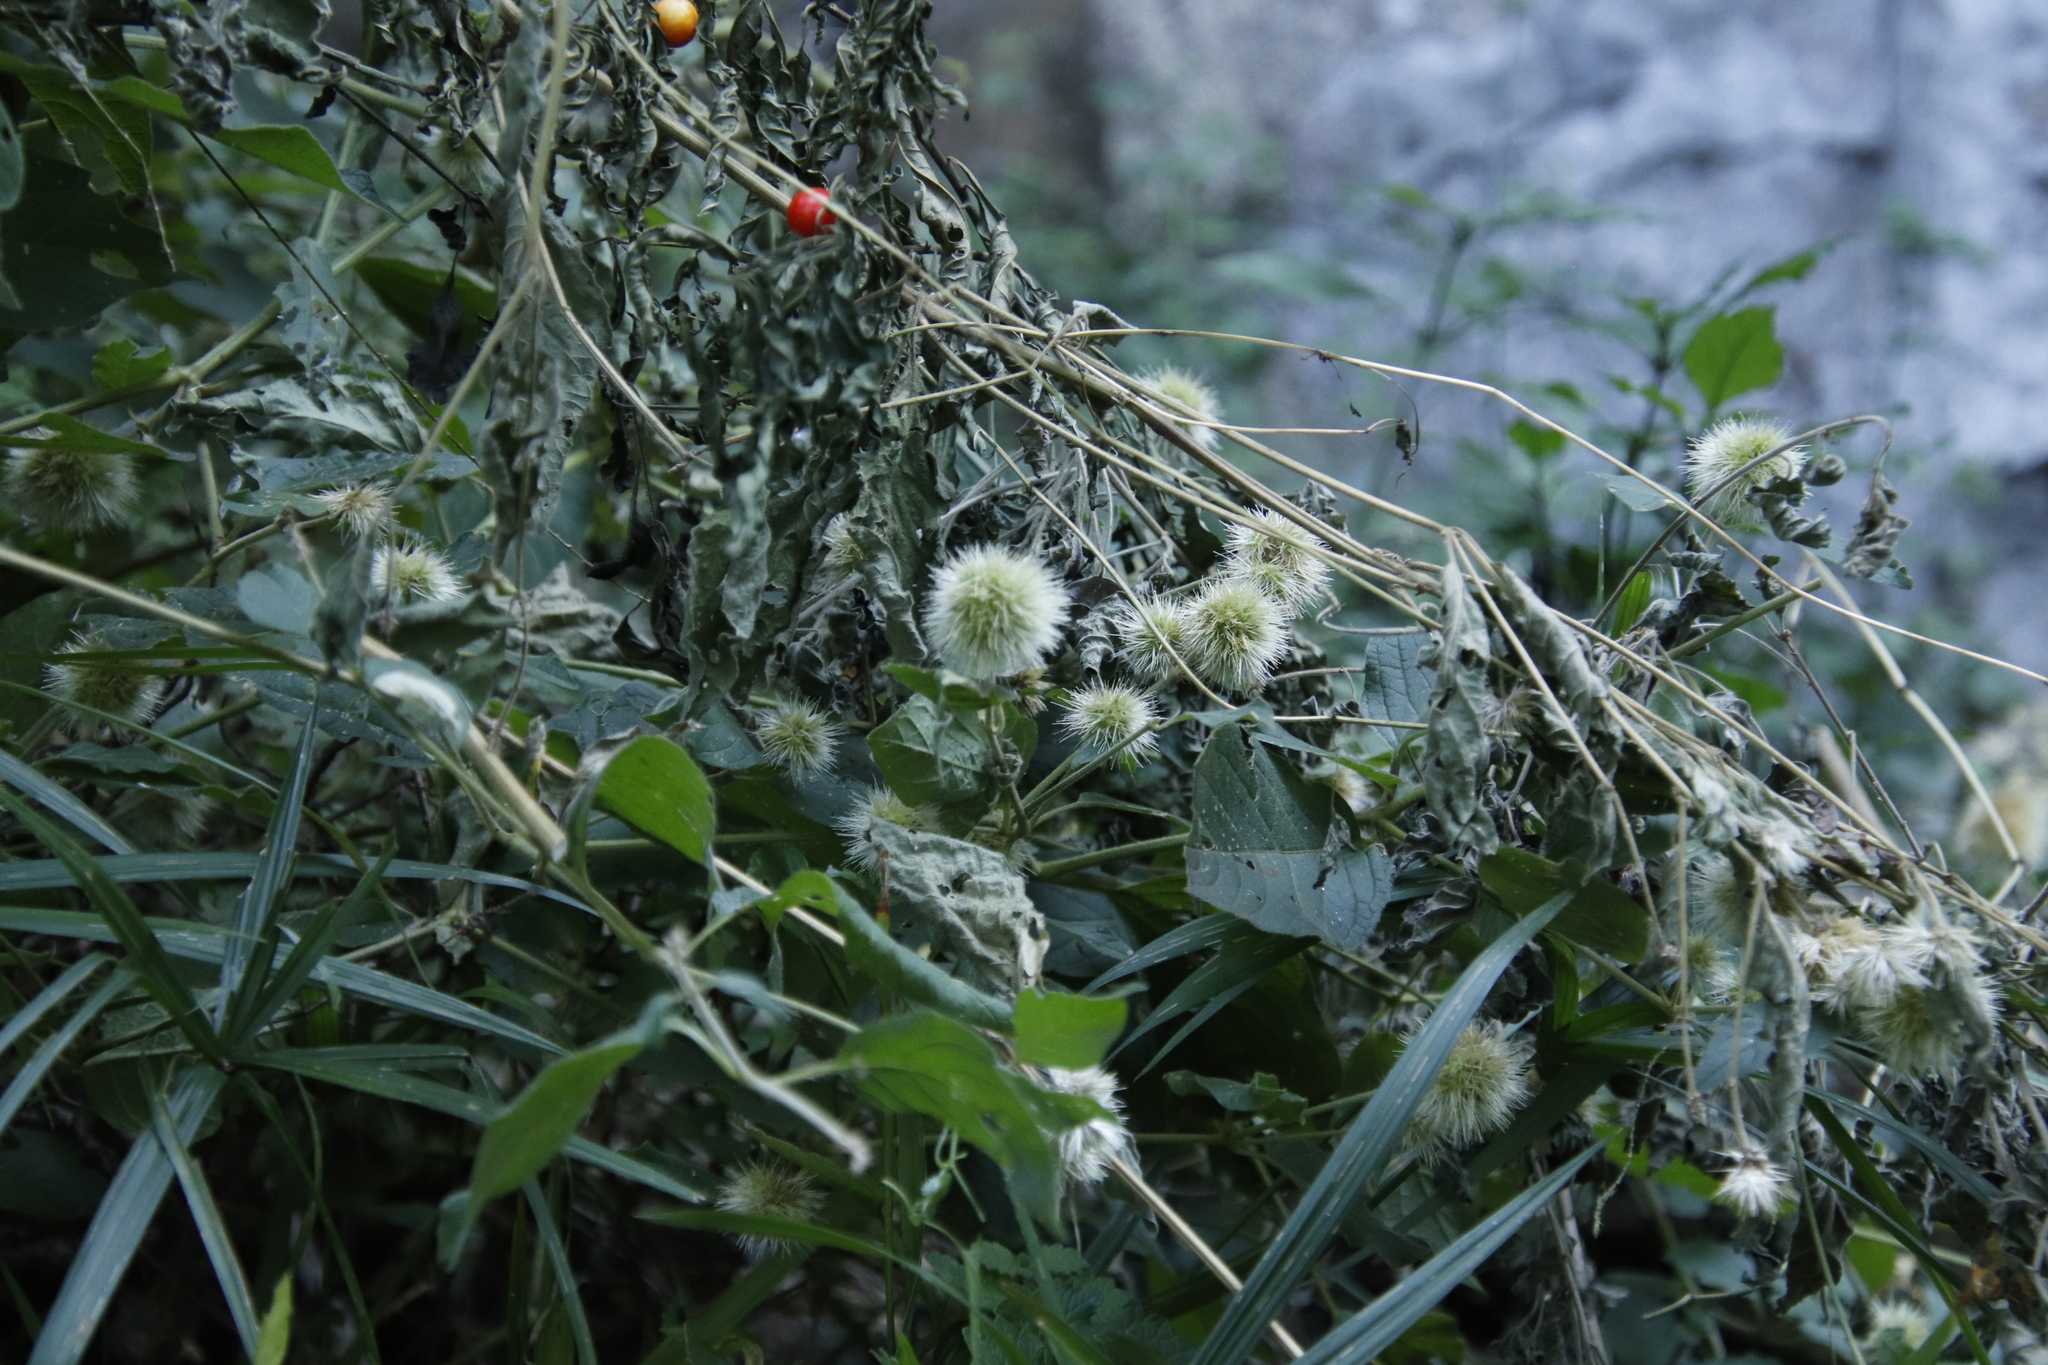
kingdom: Plantae
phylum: Tracheophyta
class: Magnoliopsida
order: Caryophyllales
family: Amaranthaceae
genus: Cyathula
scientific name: Cyathula uncinulata
